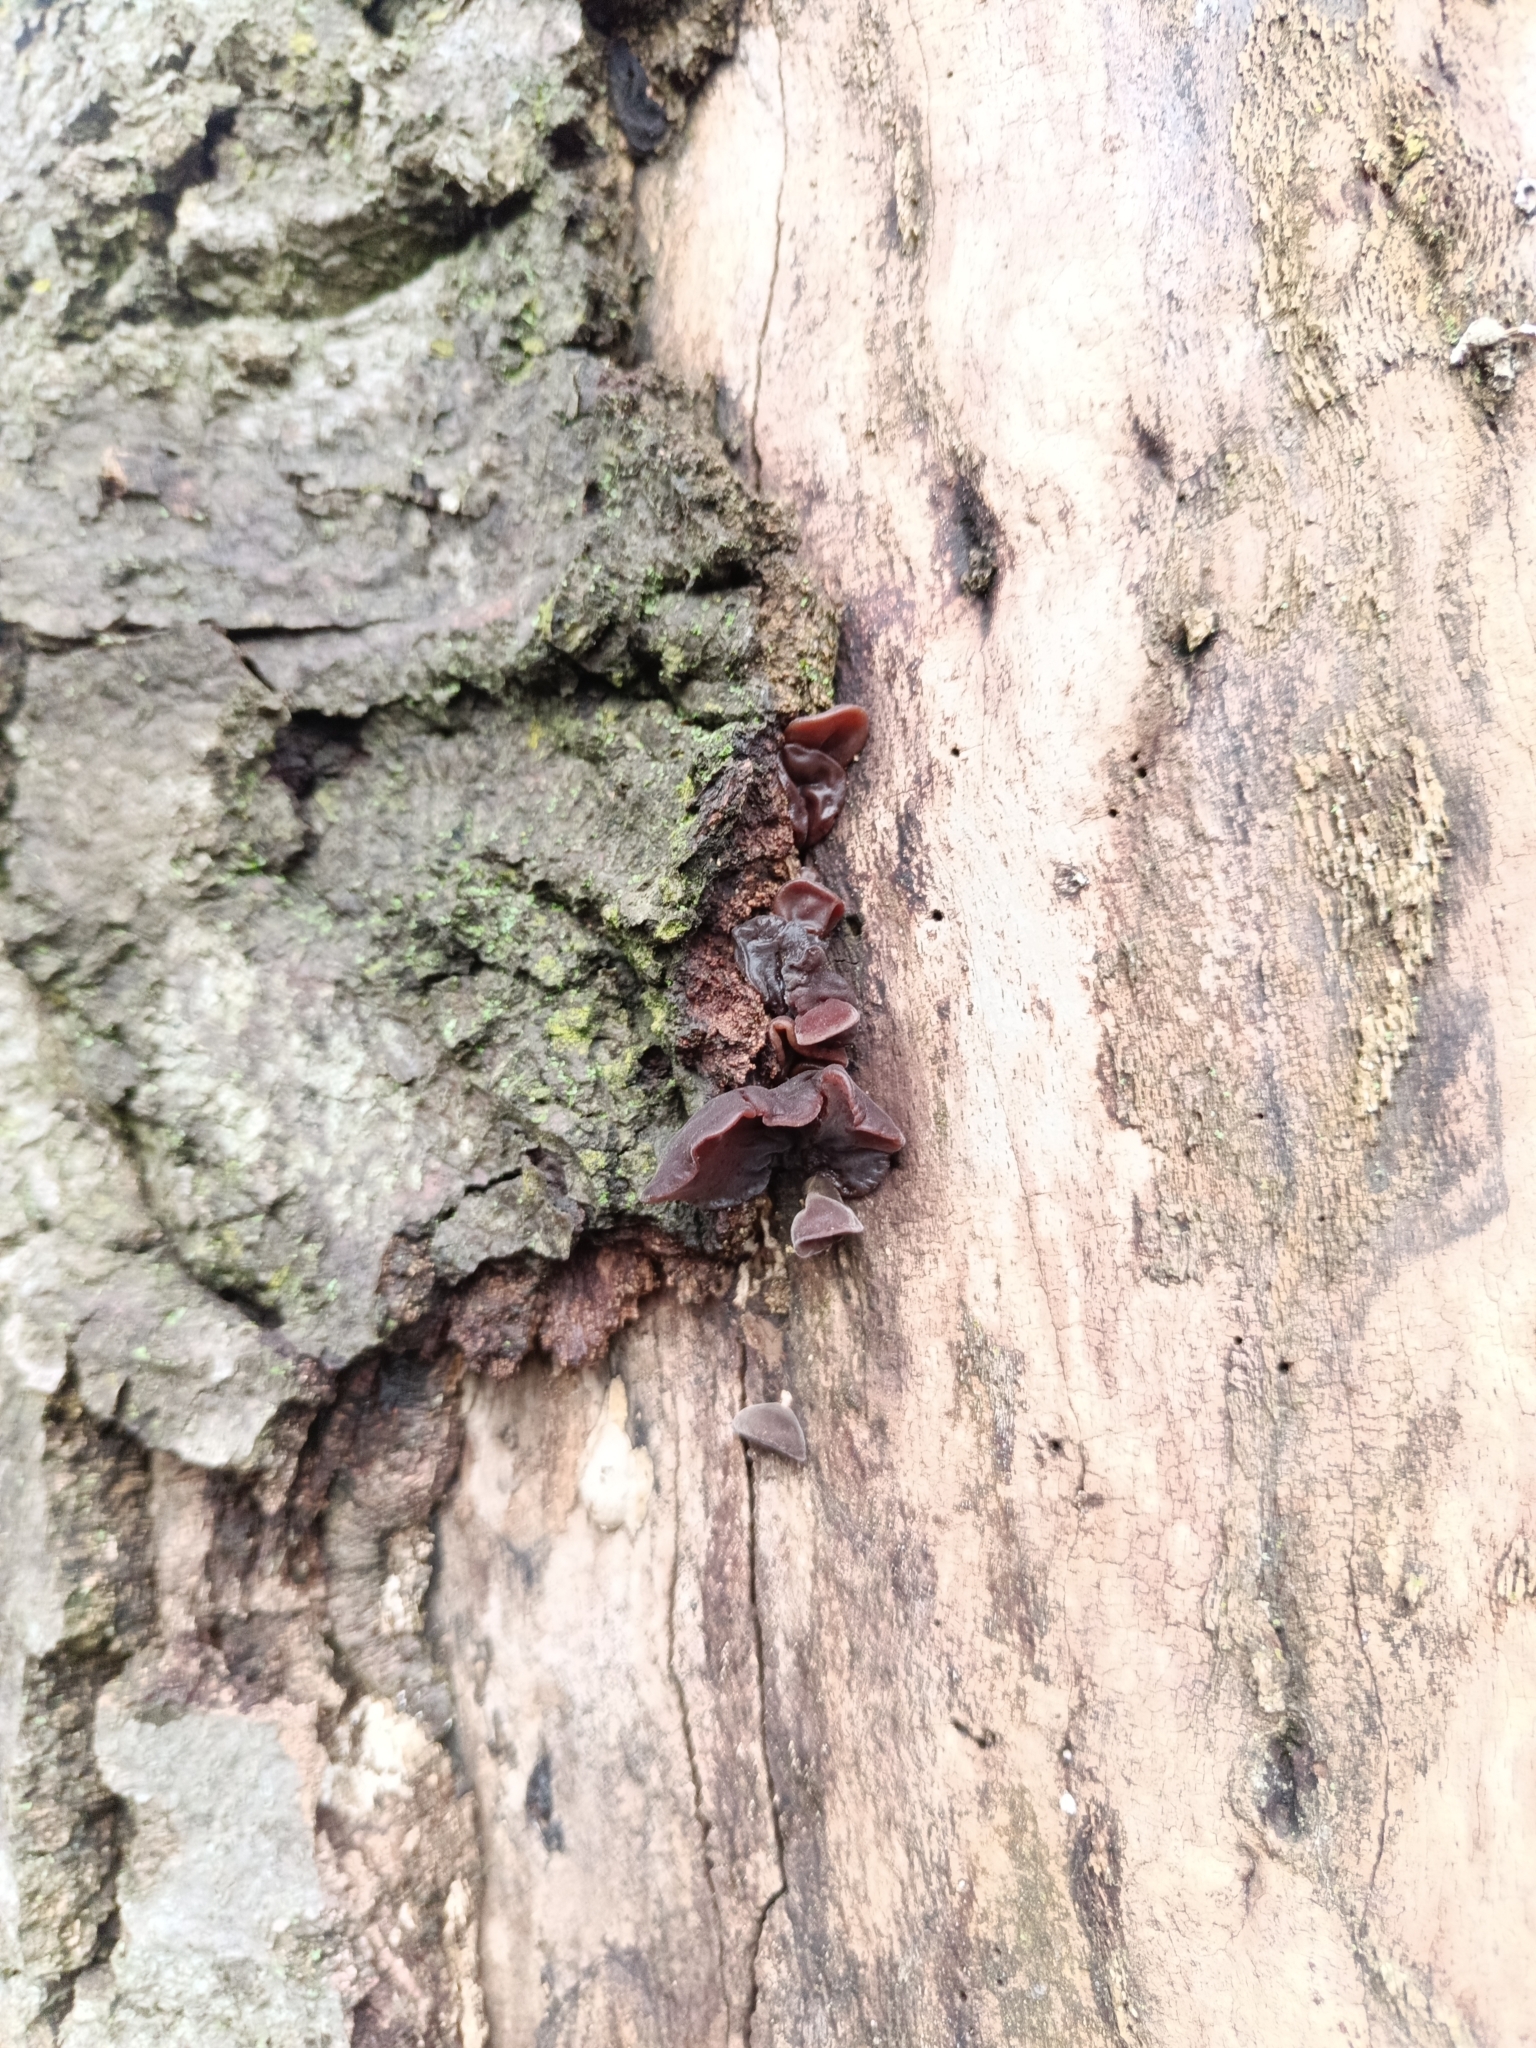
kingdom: Fungi
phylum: Basidiomycota
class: Agaricomycetes
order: Auriculariales
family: Auriculariaceae
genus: Auricularia
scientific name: Auricularia auricula-judae
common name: Jelly ear
